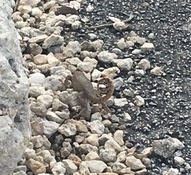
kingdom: Animalia
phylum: Chordata
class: Squamata
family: Leiocephalidae
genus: Leiocephalus
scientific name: Leiocephalus carinatus
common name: Northern curly-tailed lizard
